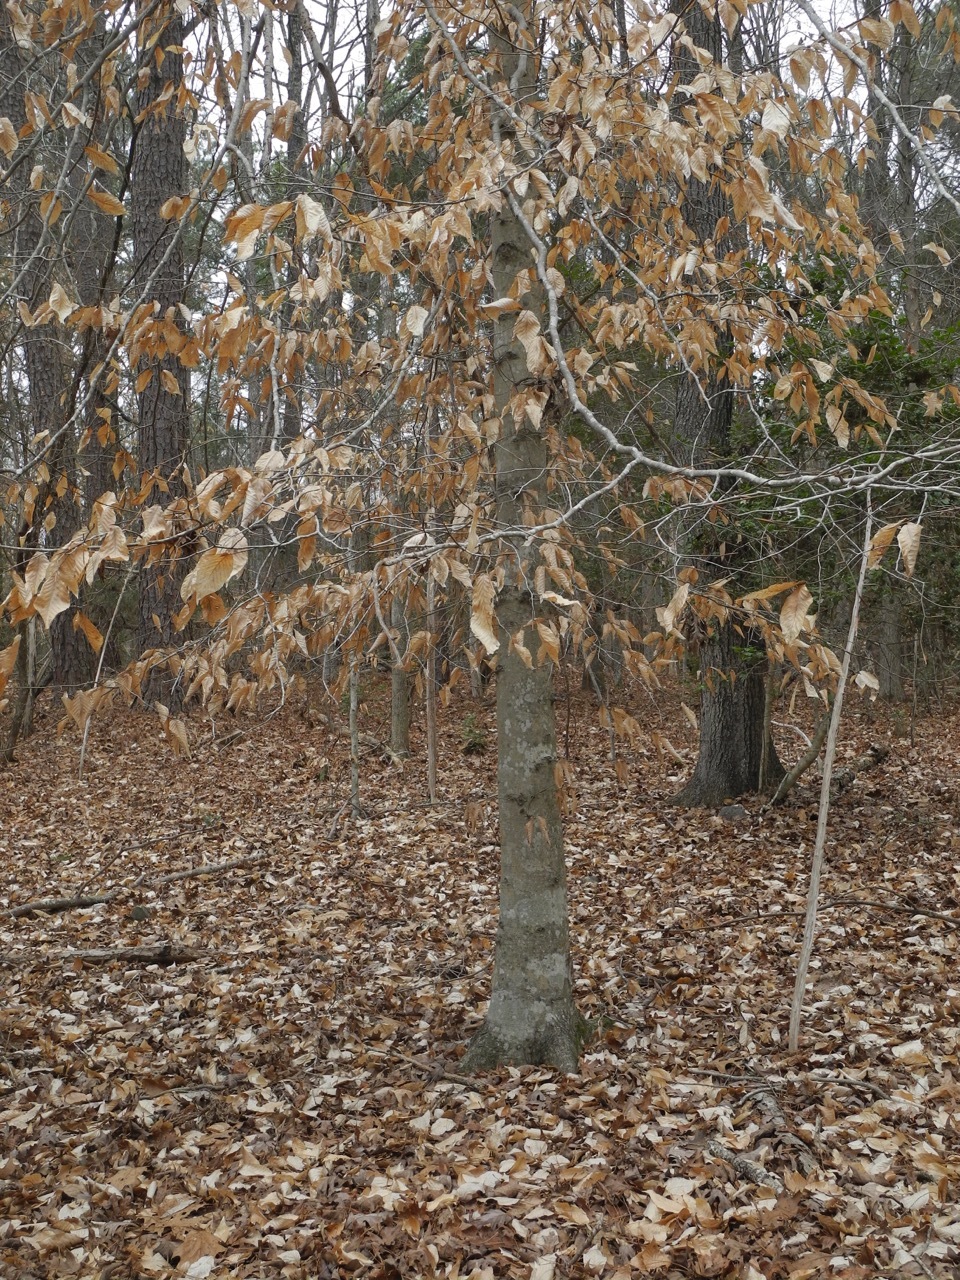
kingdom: Plantae
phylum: Tracheophyta
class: Magnoliopsida
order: Fagales
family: Fagaceae
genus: Fagus
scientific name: Fagus grandifolia
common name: American beech
